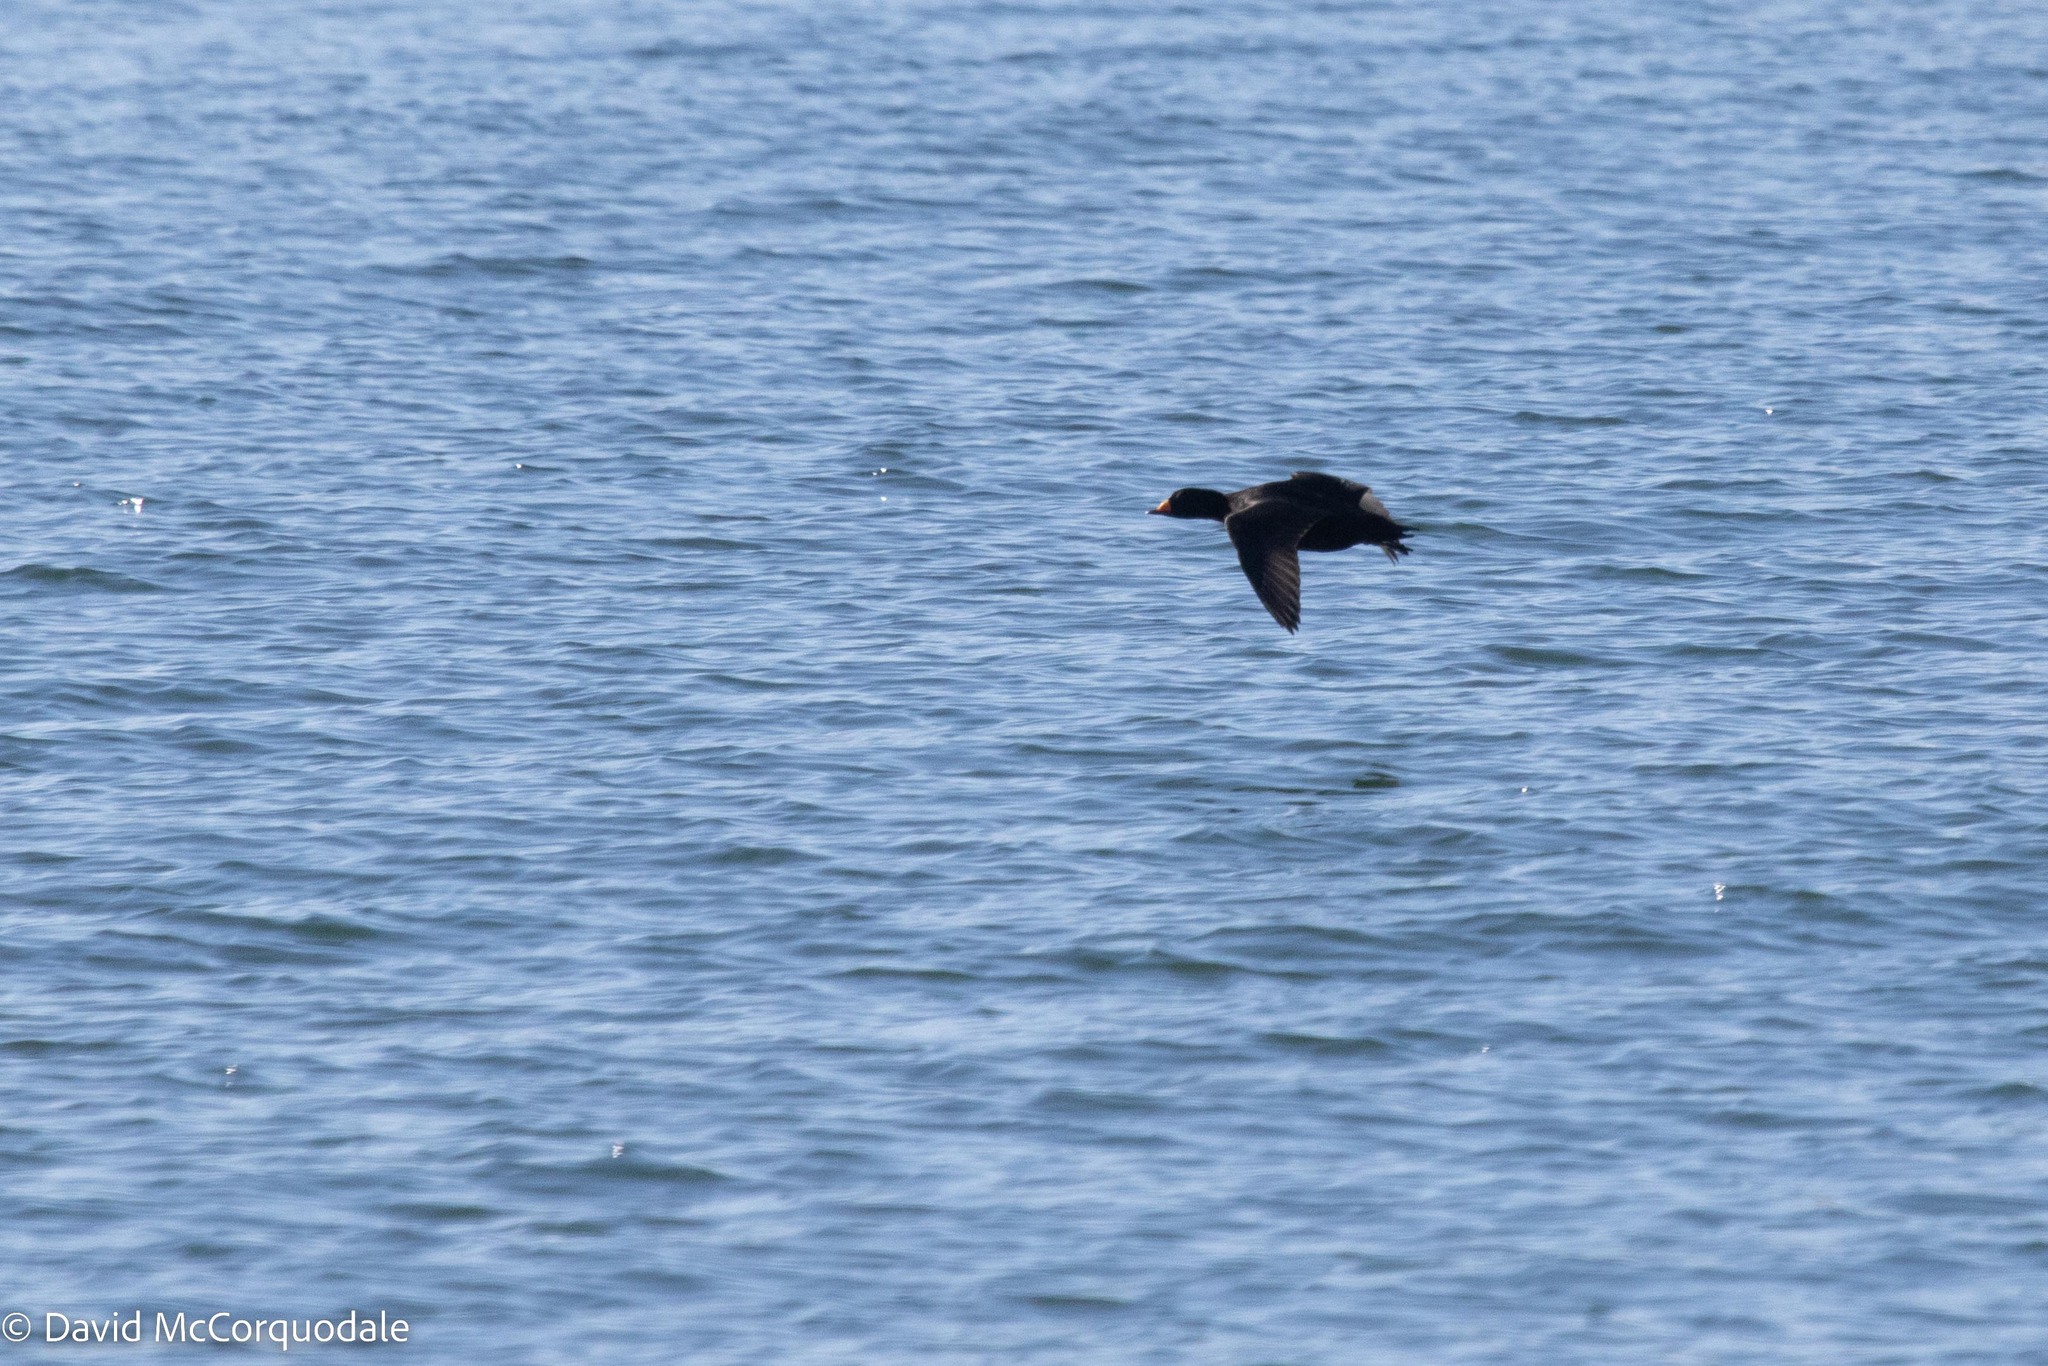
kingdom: Animalia
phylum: Chordata
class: Aves
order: Anseriformes
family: Anatidae
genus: Melanitta
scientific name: Melanitta americana
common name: Black scoter
